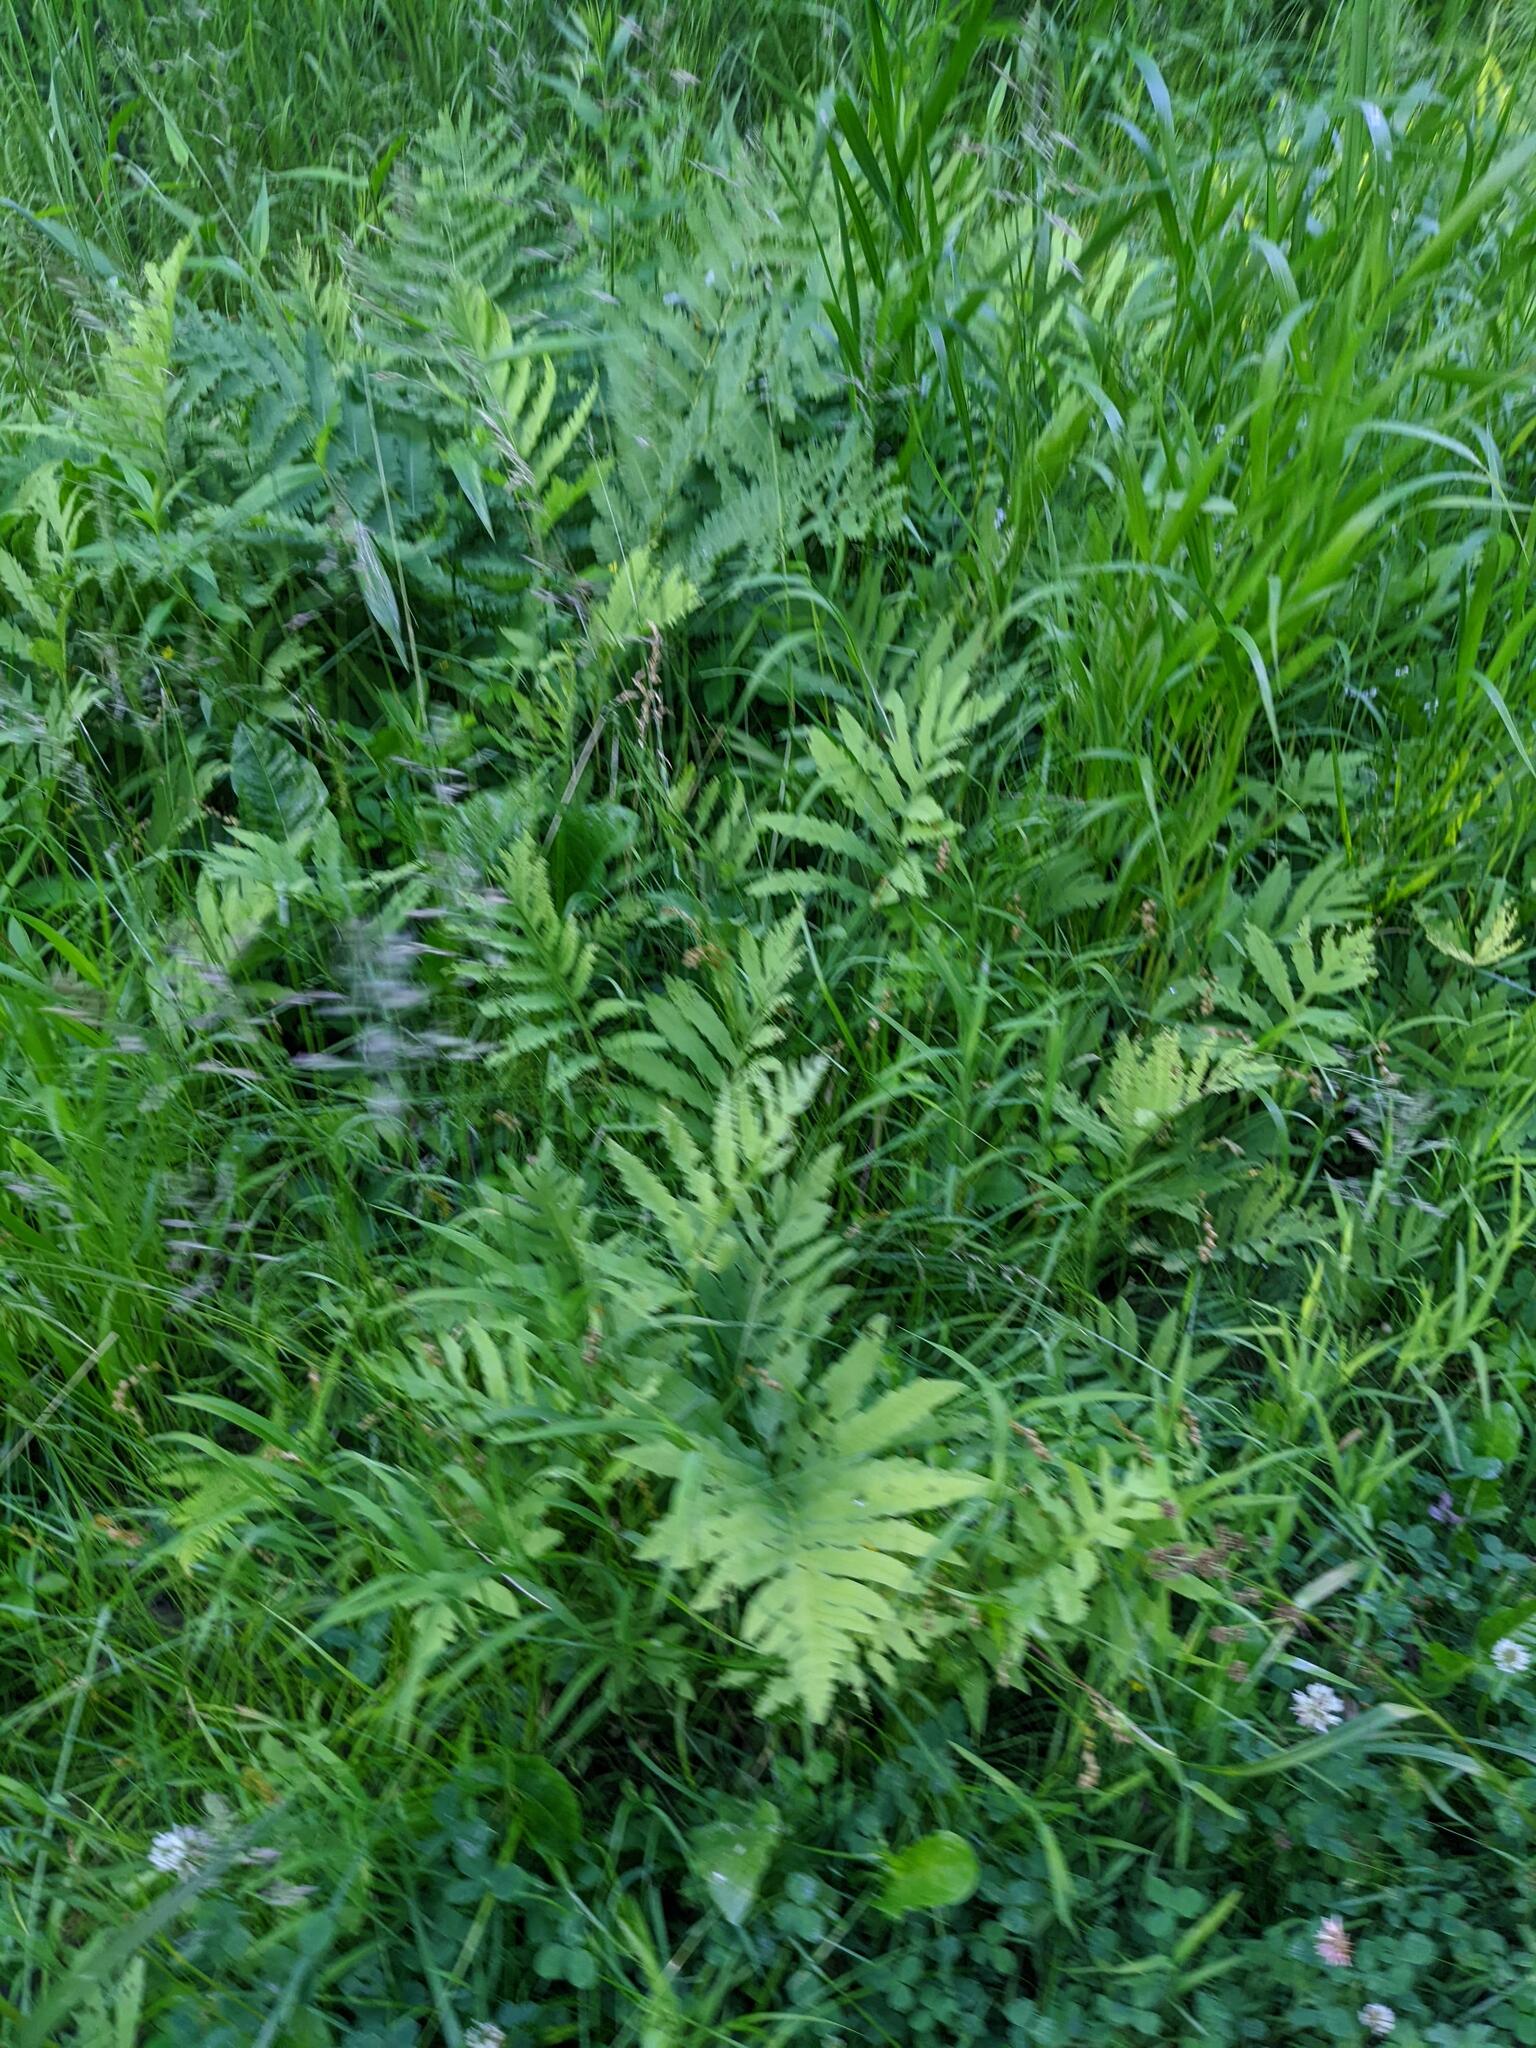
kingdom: Plantae
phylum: Tracheophyta
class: Polypodiopsida
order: Polypodiales
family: Onocleaceae
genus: Onoclea
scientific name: Onoclea sensibilis
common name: Sensitive fern
